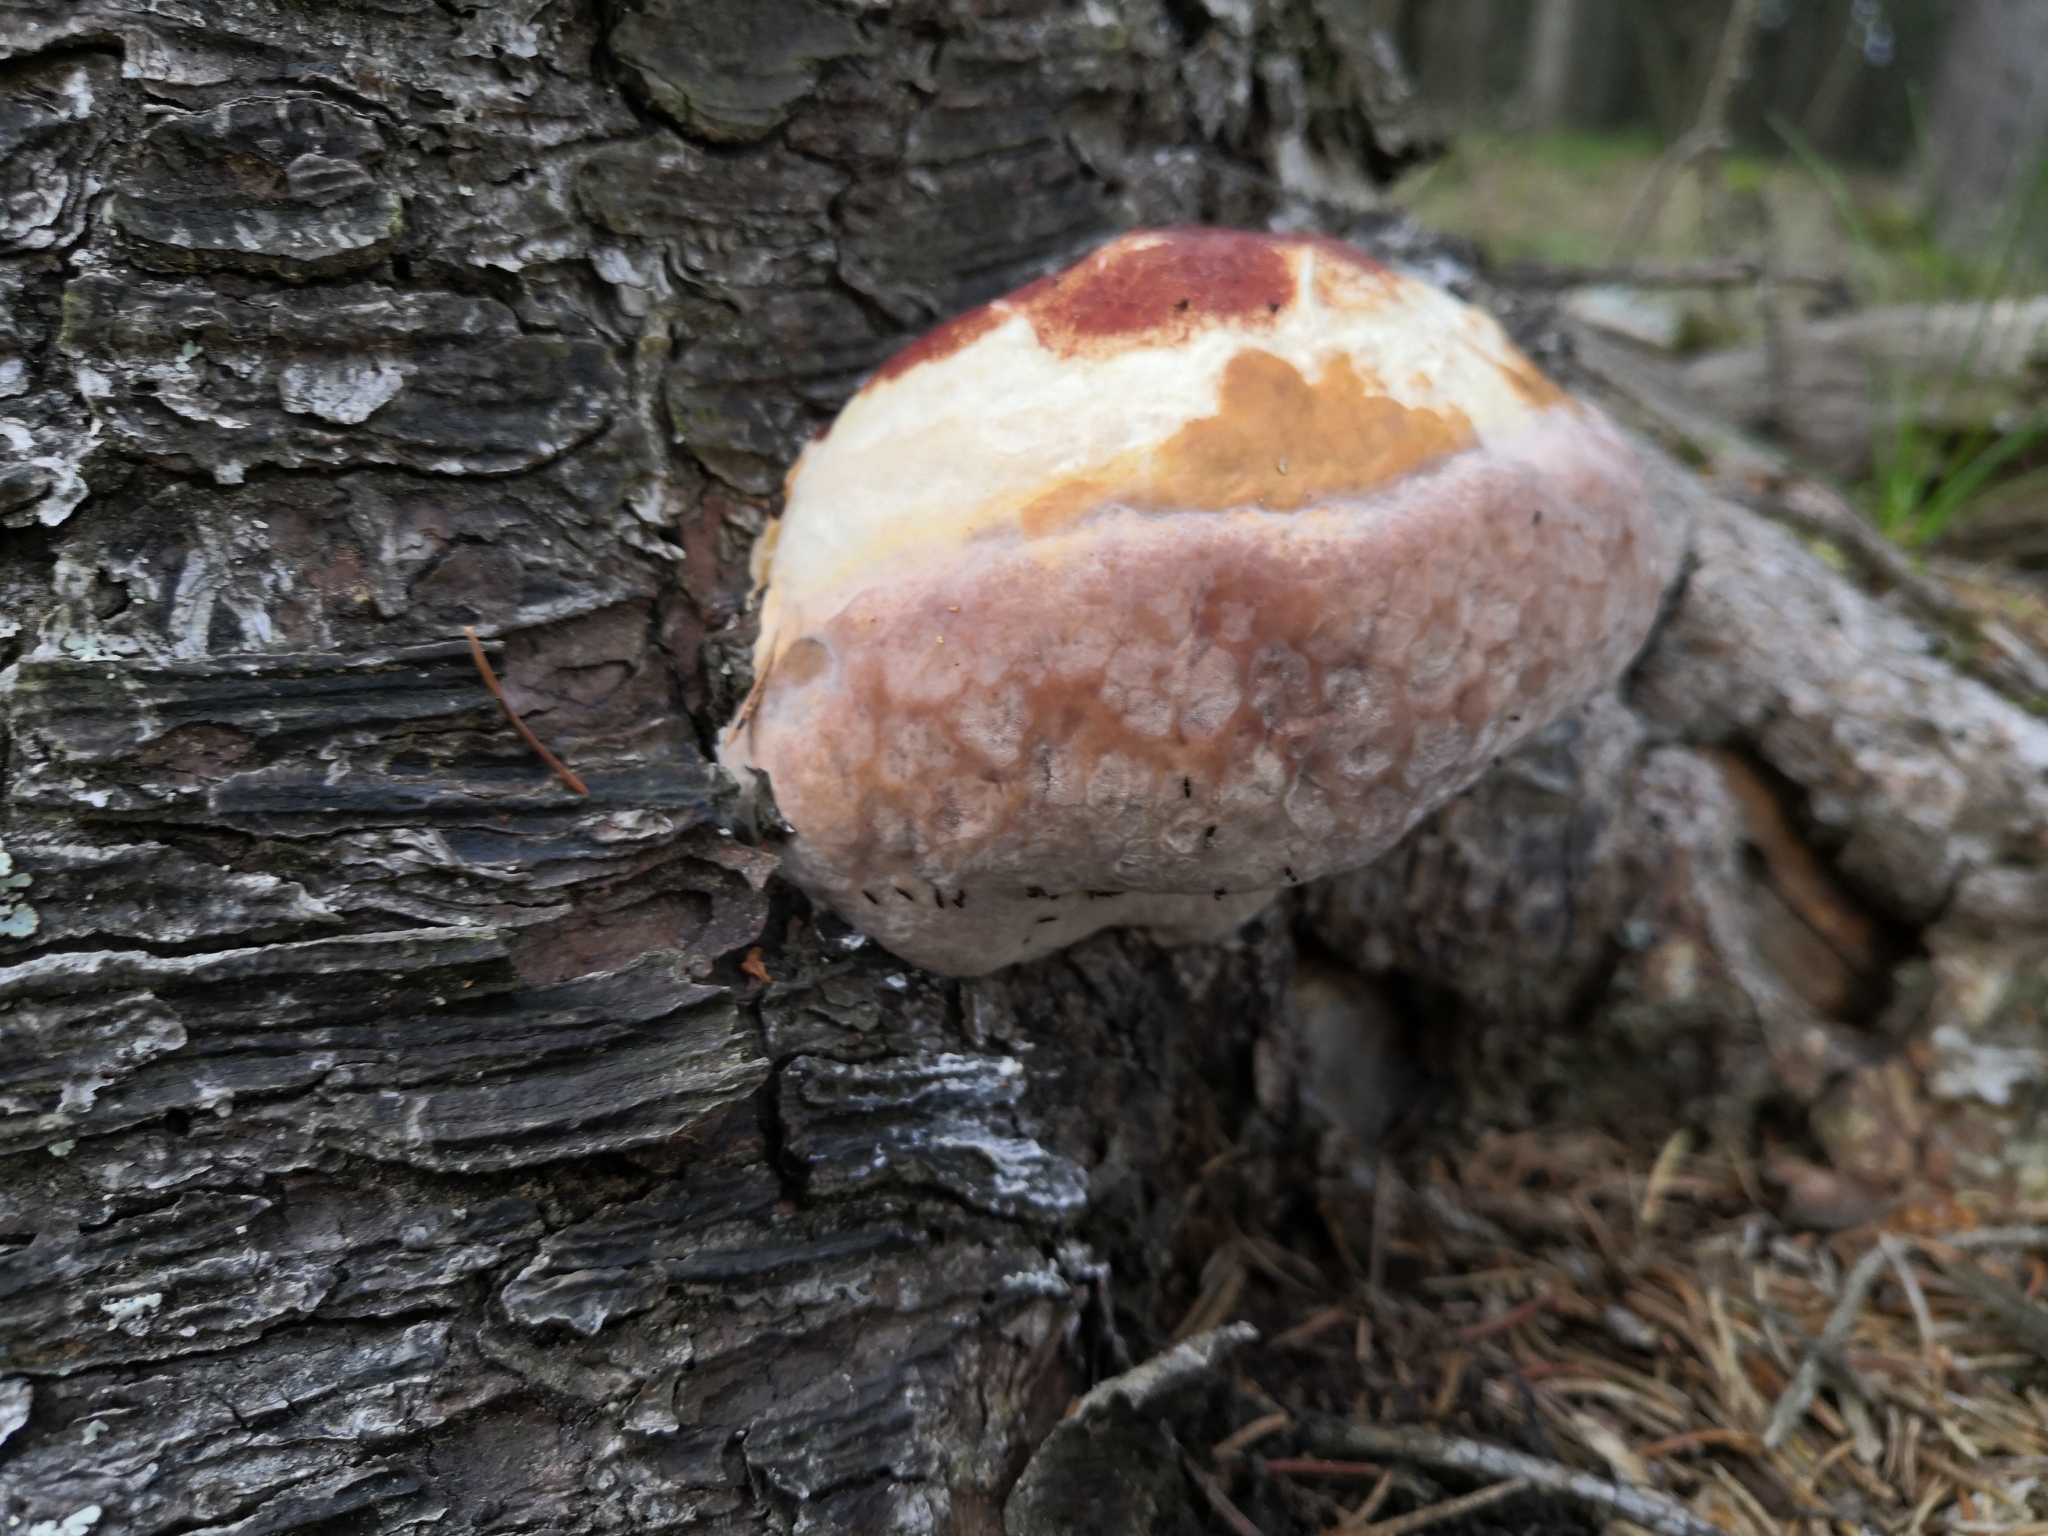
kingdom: Fungi
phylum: Basidiomycota
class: Agaricomycetes
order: Polyporales
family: Fomitopsidaceae
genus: Fomitopsis
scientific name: Fomitopsis pinicola
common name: Red-belted bracket
